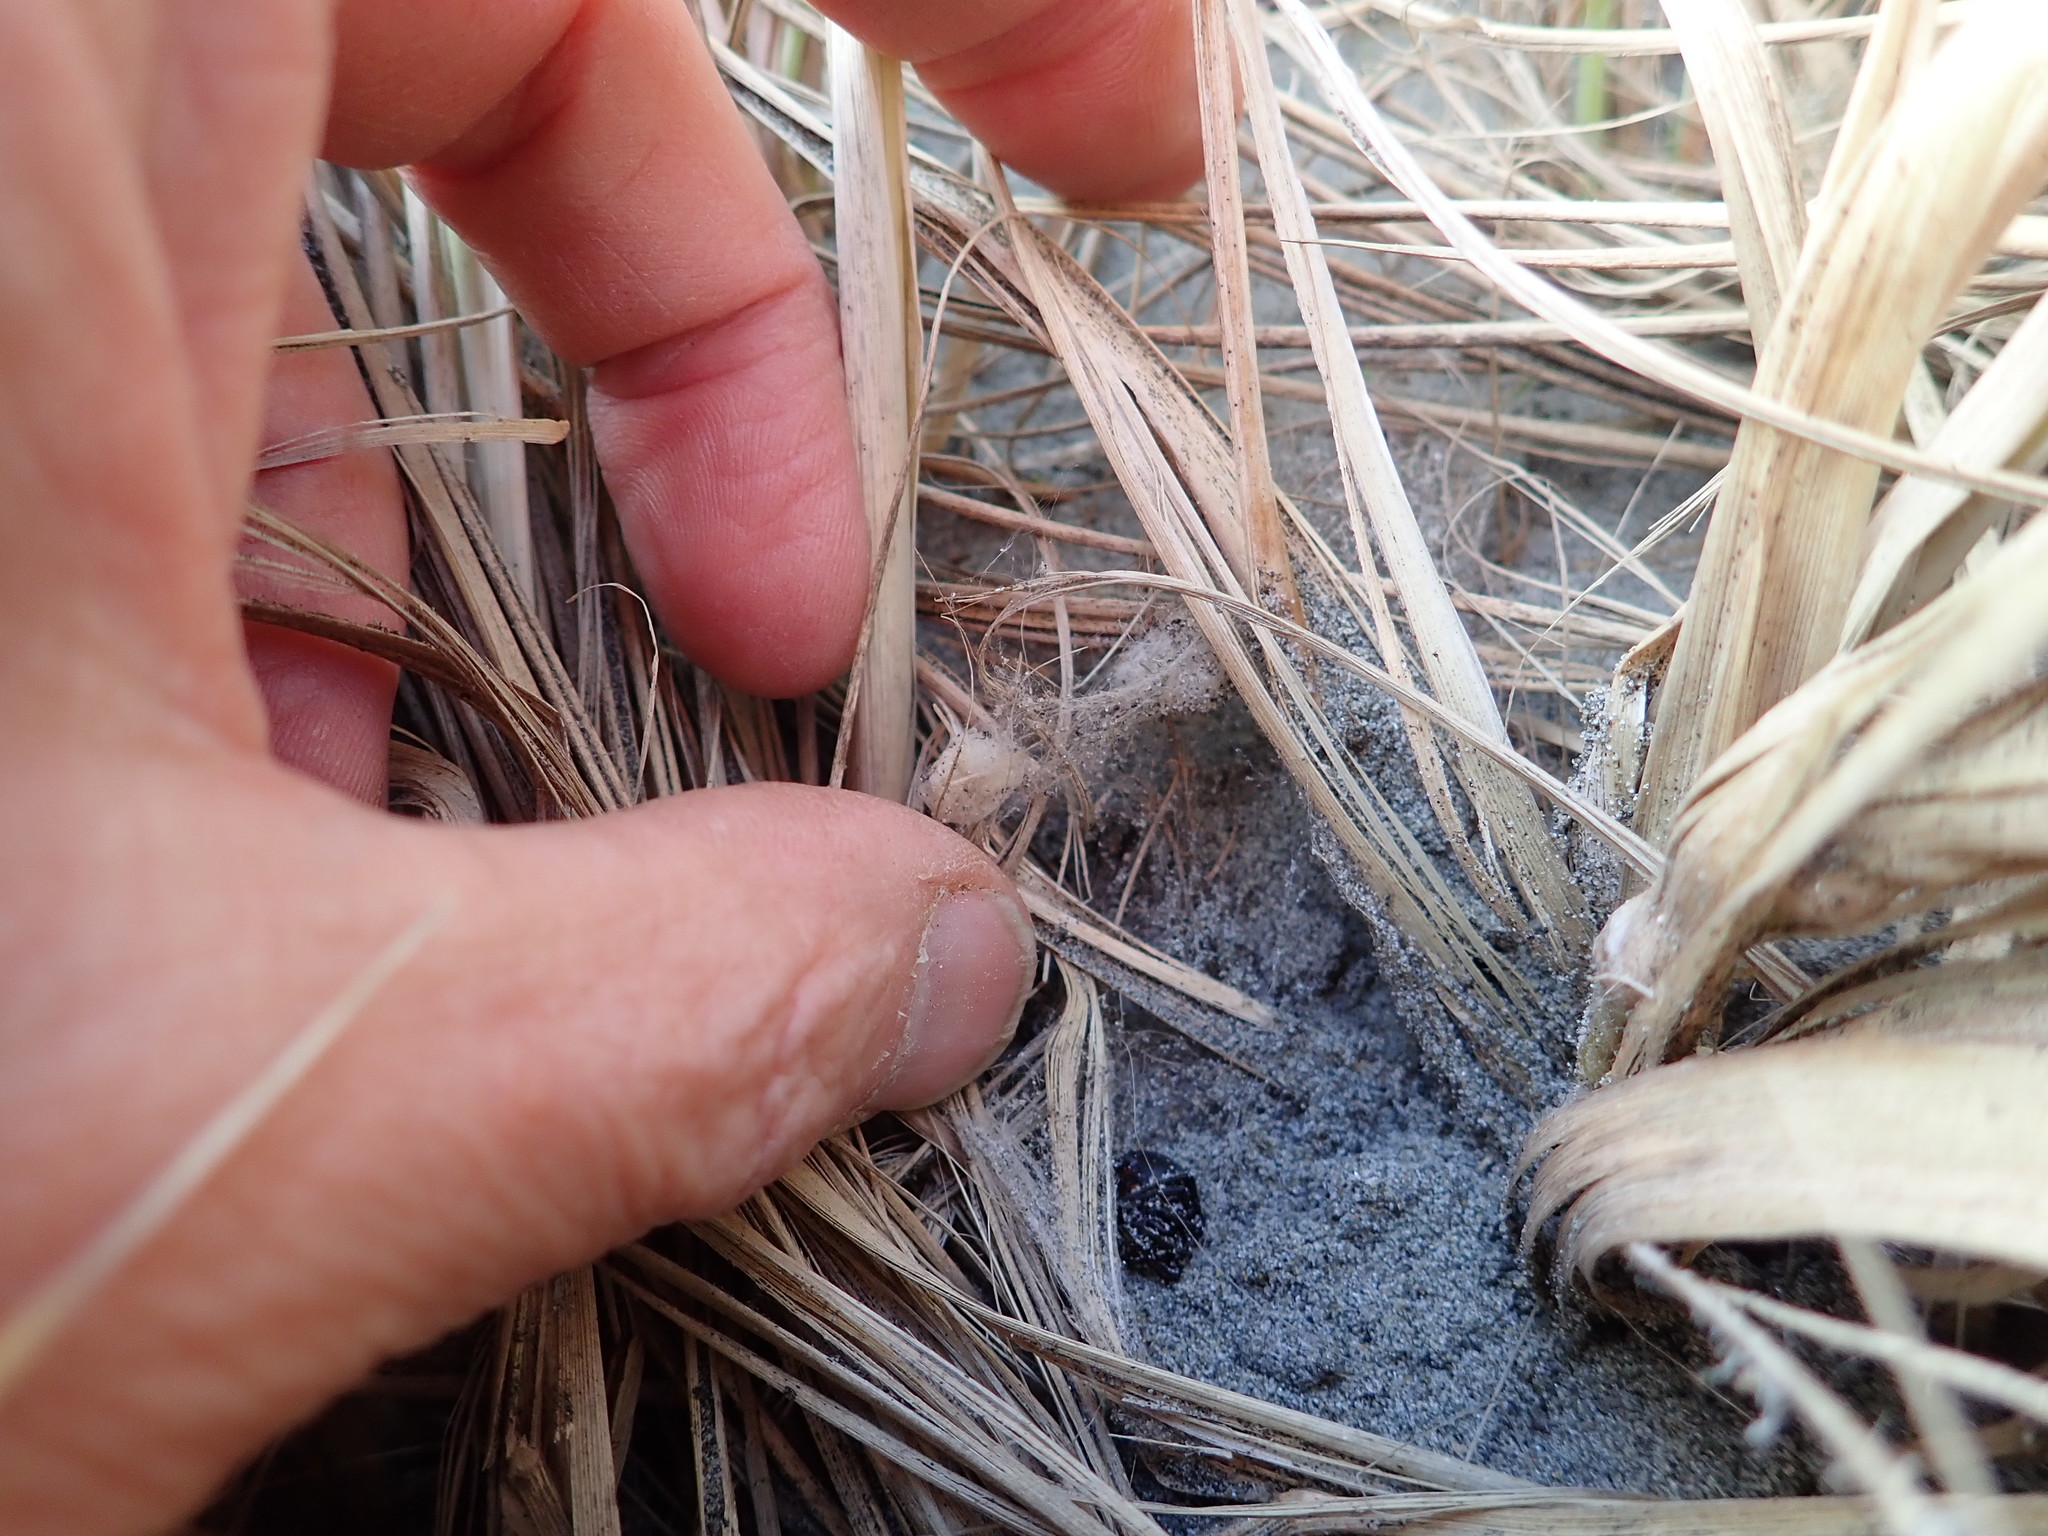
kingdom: Animalia
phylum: Arthropoda
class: Arachnida
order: Araneae
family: Theridiidae
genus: Latrodectus
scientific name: Latrodectus katipo
